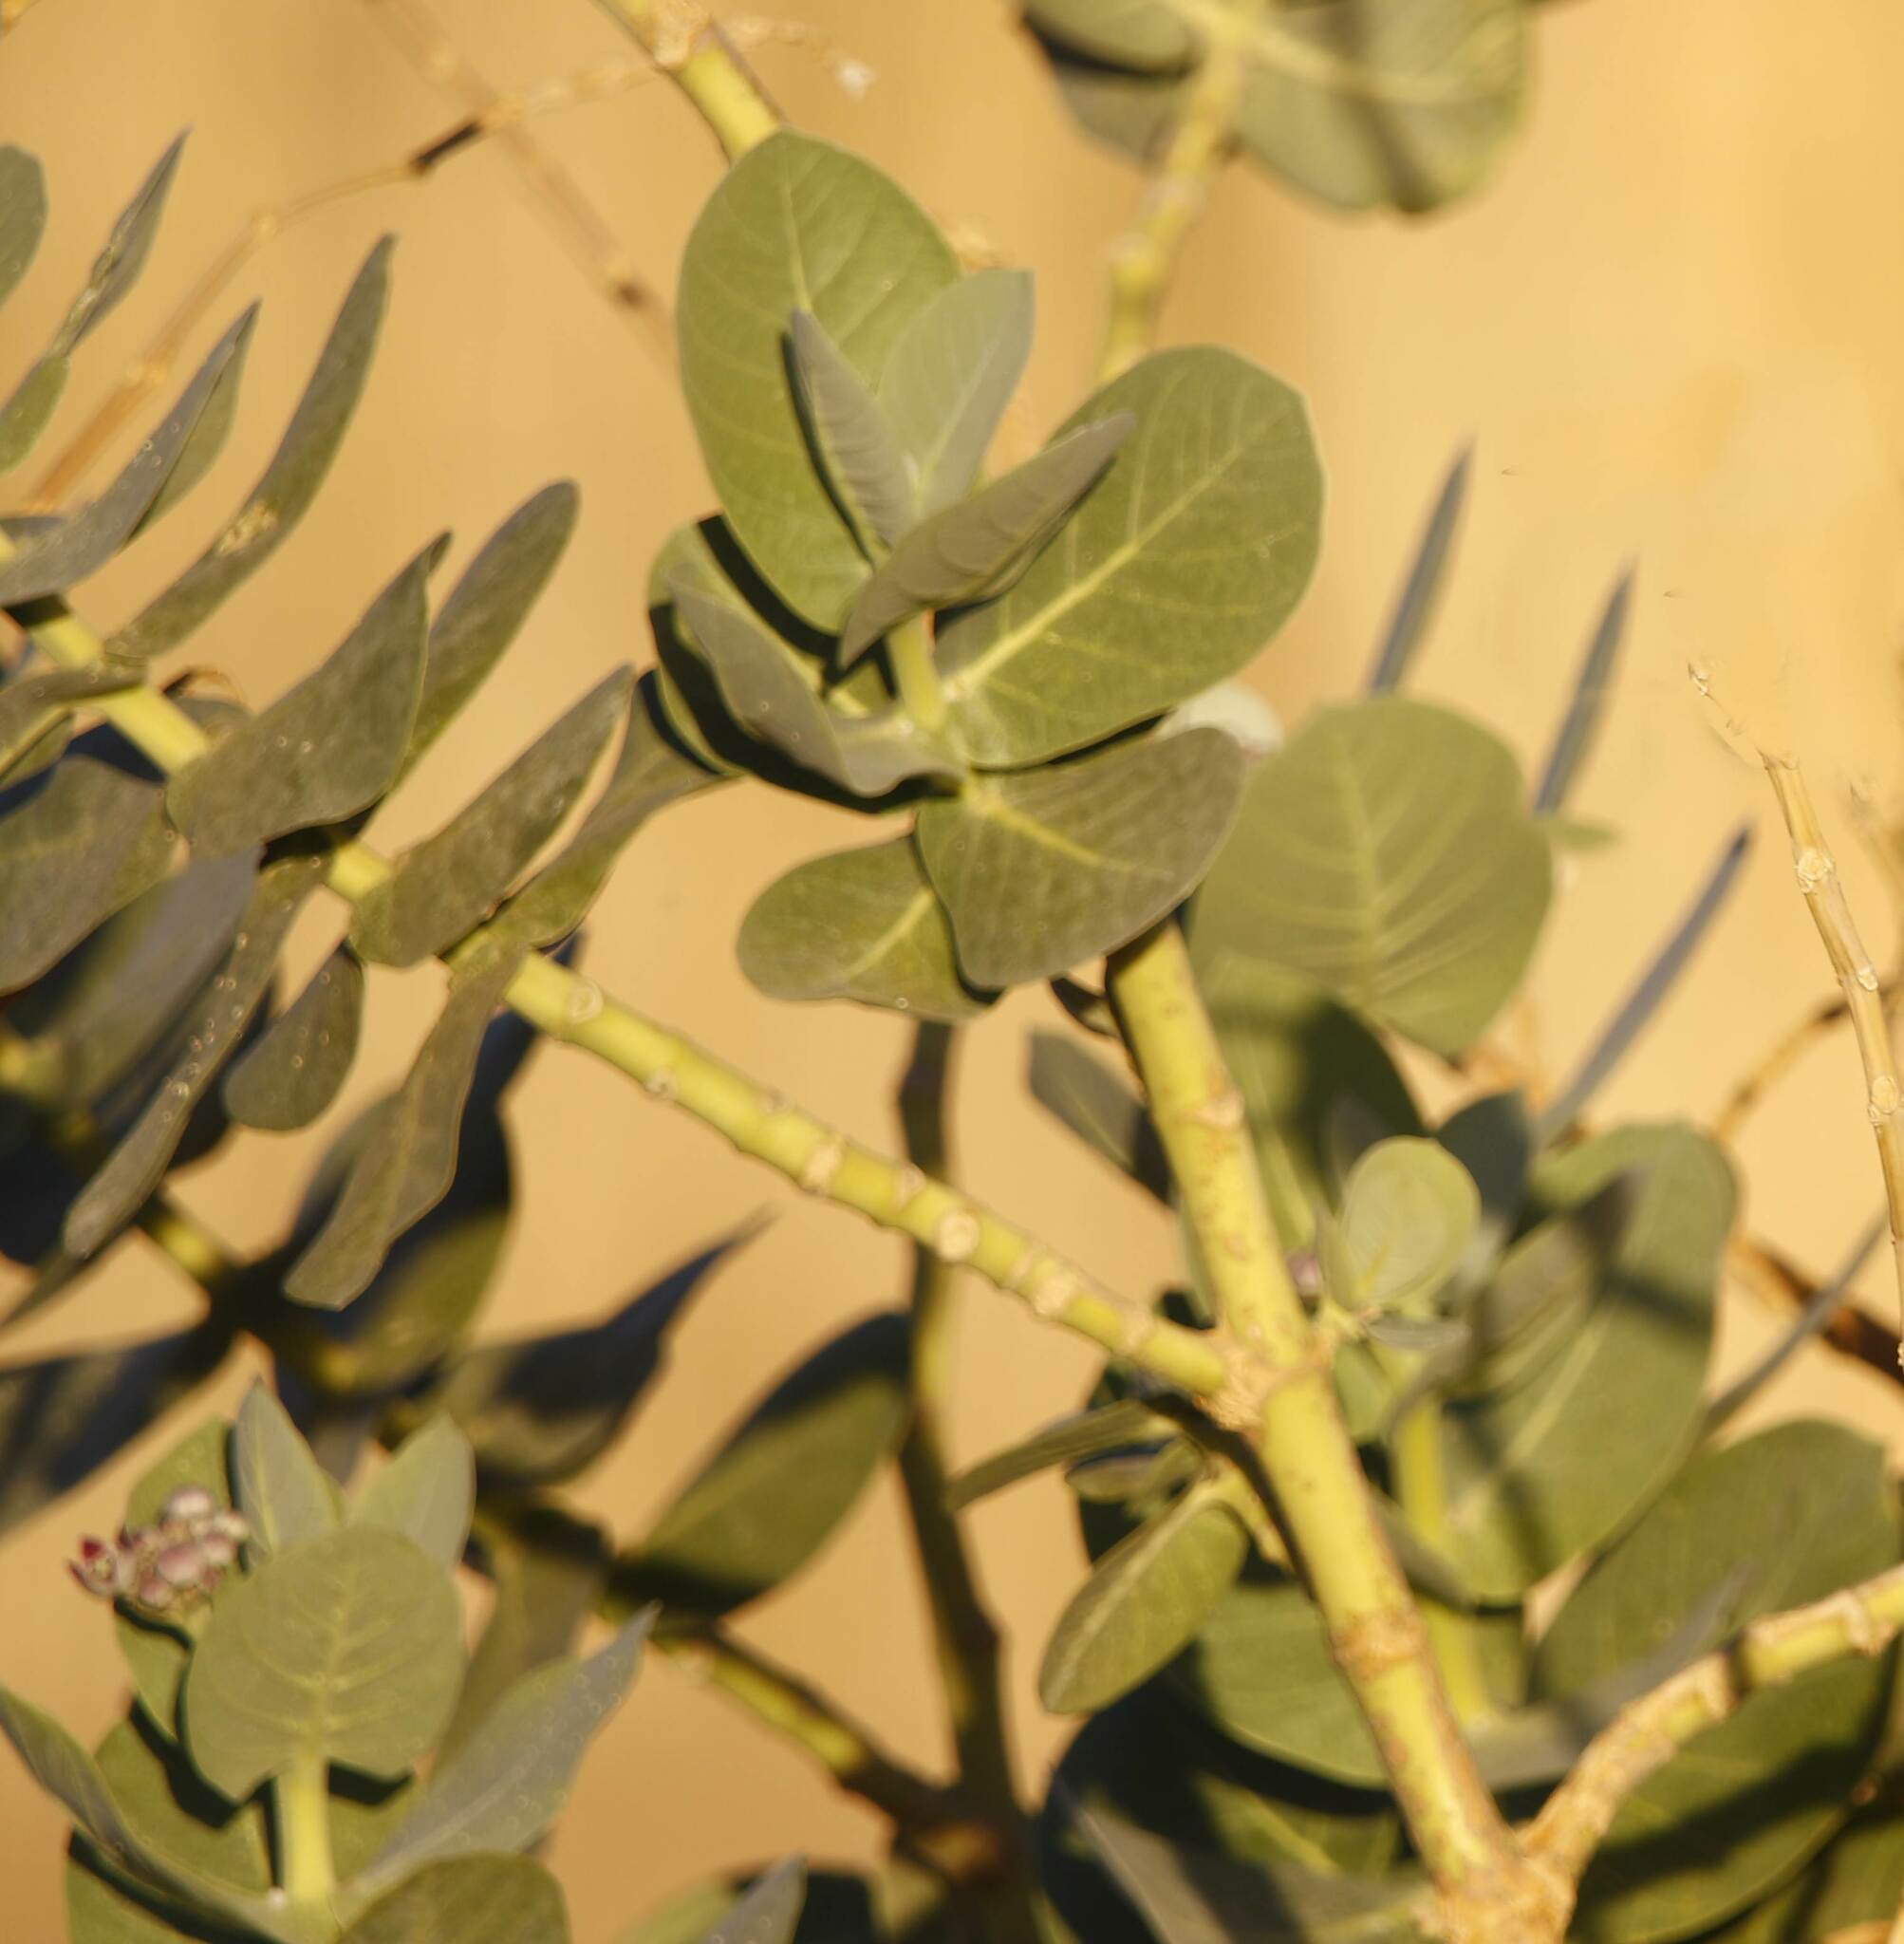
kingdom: Plantae
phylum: Tracheophyta
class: Magnoliopsida
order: Gentianales
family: Apocynaceae
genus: Calotropis
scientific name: Calotropis procera
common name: Roostertree
